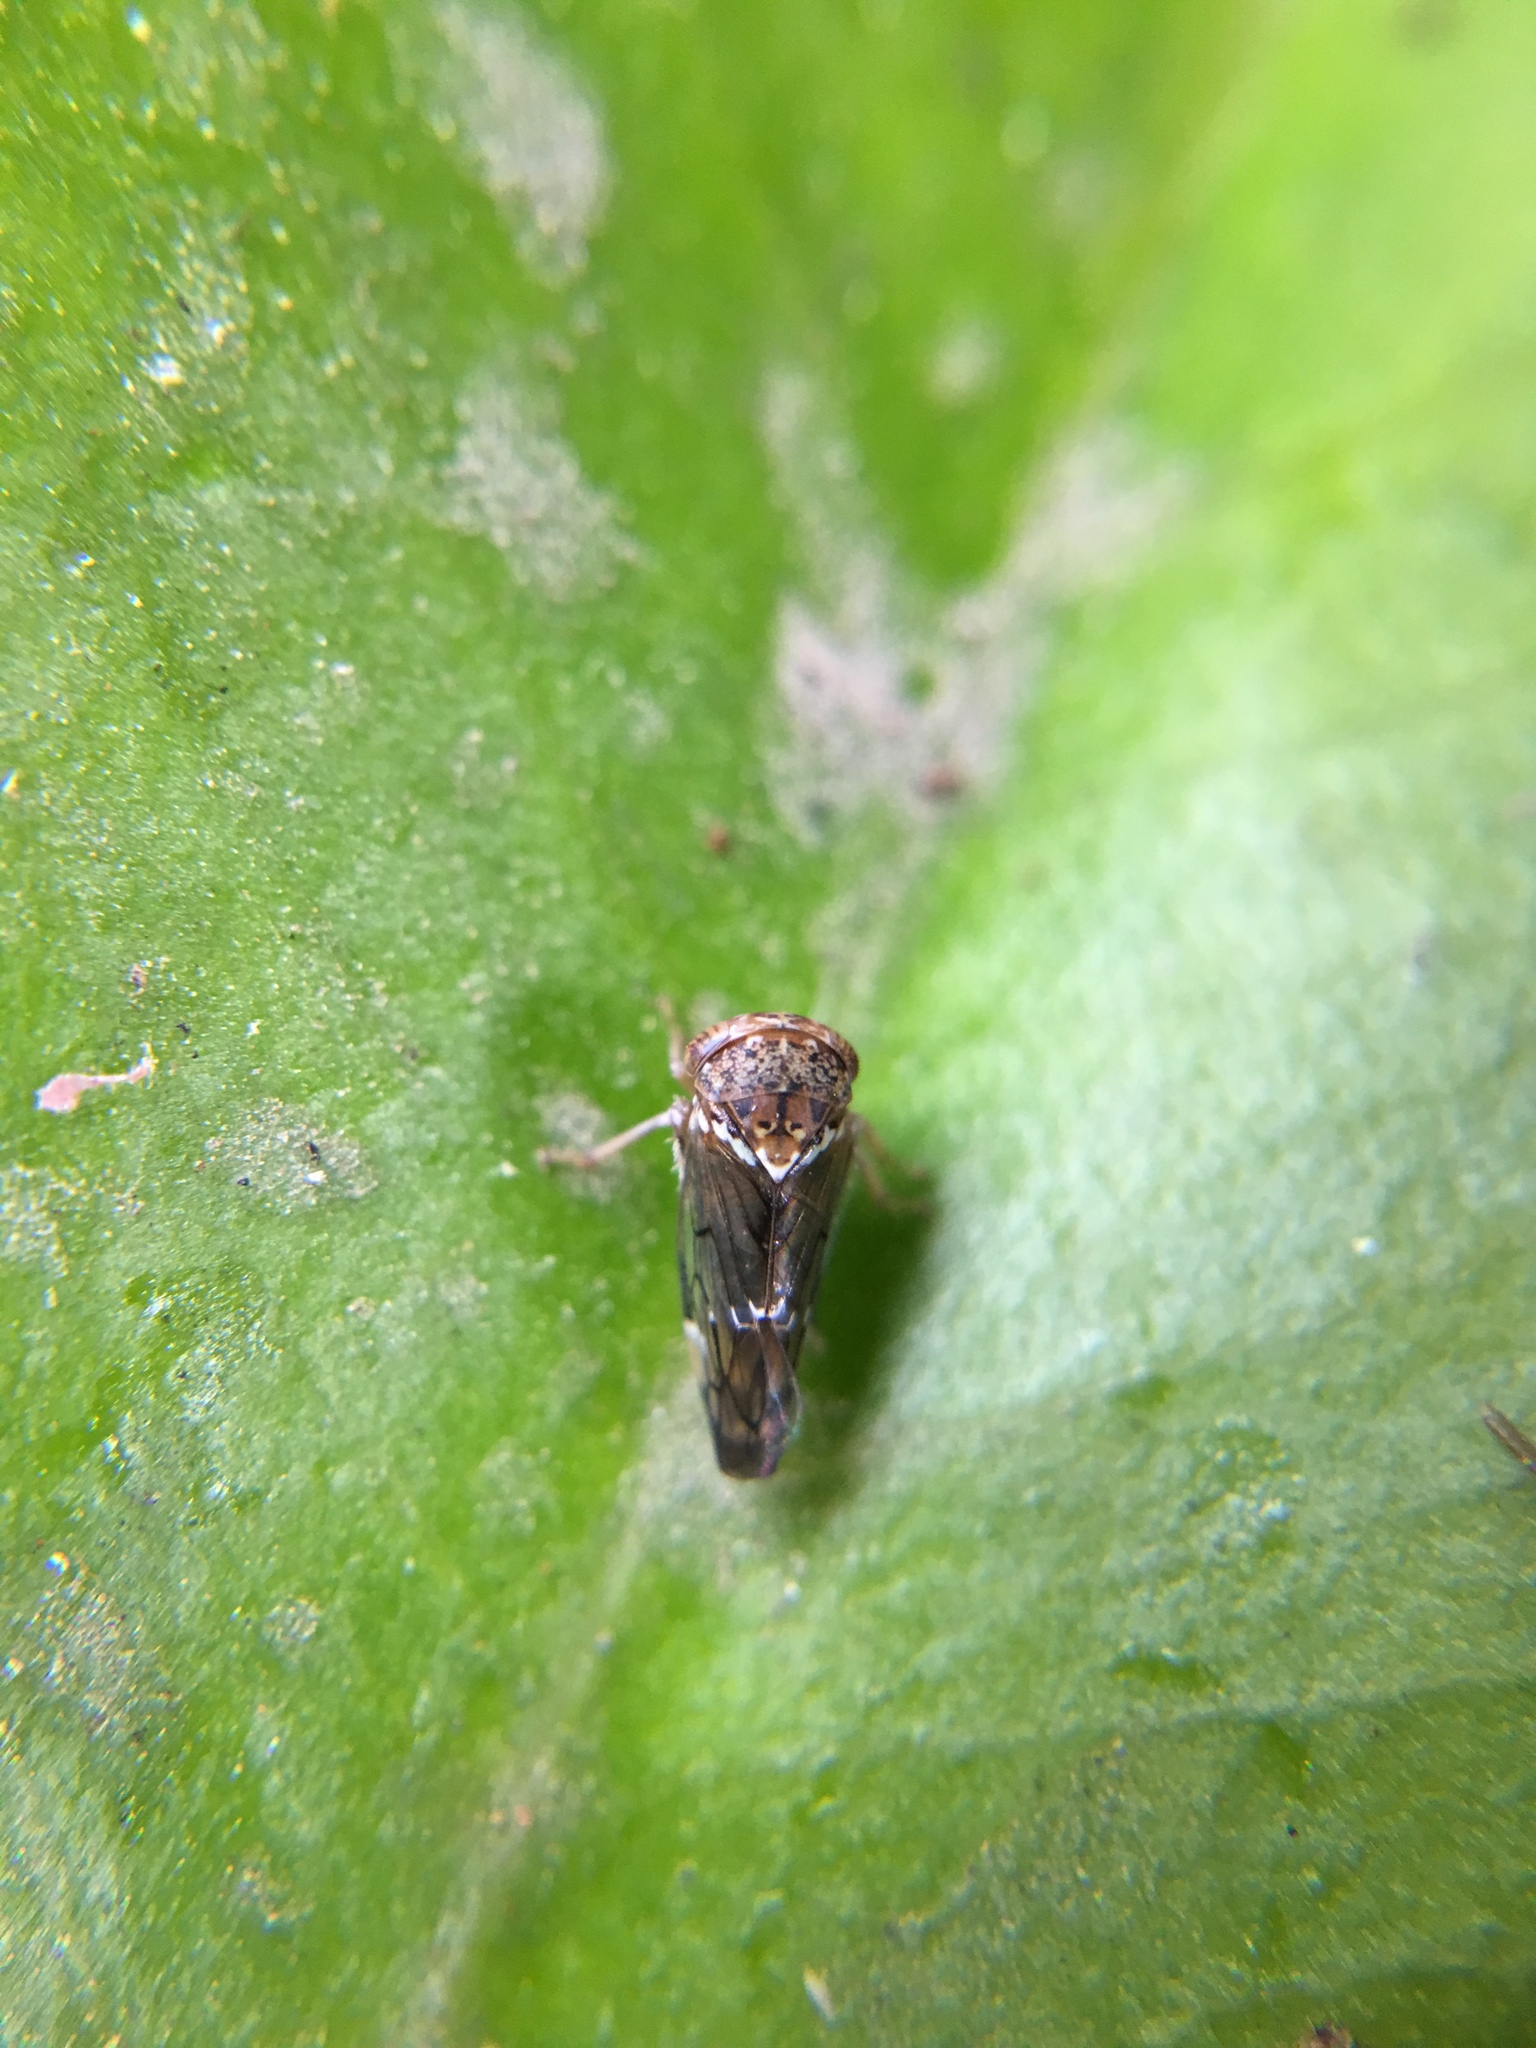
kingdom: Animalia
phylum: Arthropoda
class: Insecta
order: Hemiptera
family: Cicadellidae
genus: Idioscopus
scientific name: Idioscopus nitidulus
